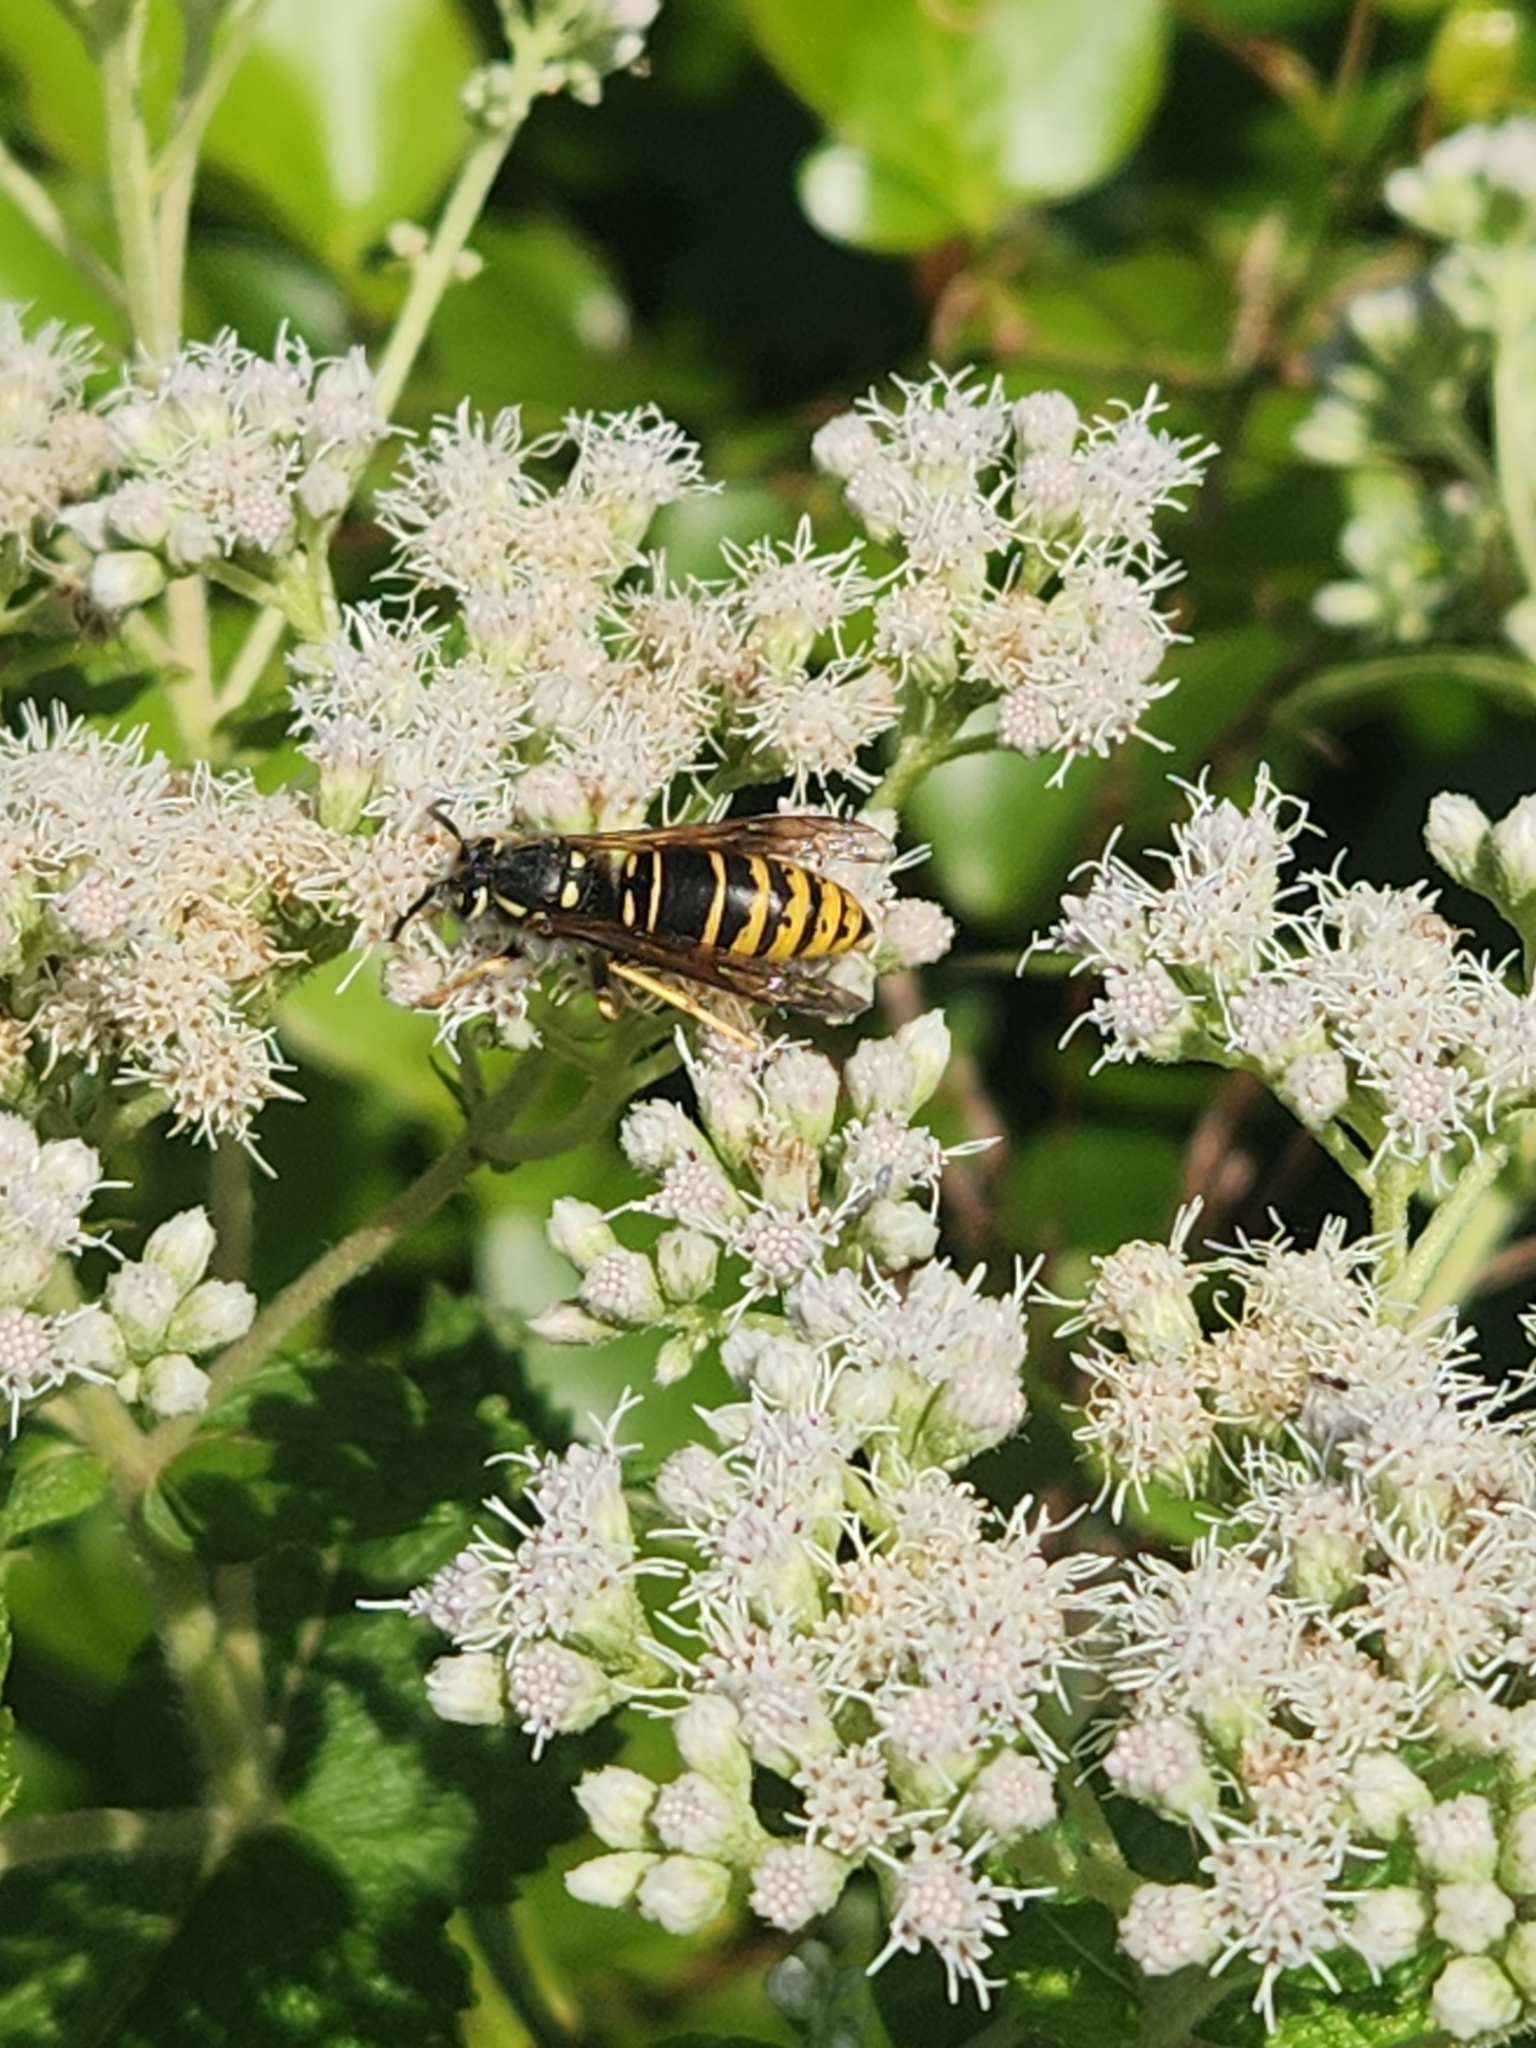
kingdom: Animalia
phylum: Arthropoda
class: Insecta
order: Hymenoptera
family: Vespidae
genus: Vespula
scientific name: Vespula vidua
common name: Widow yellowjacket
